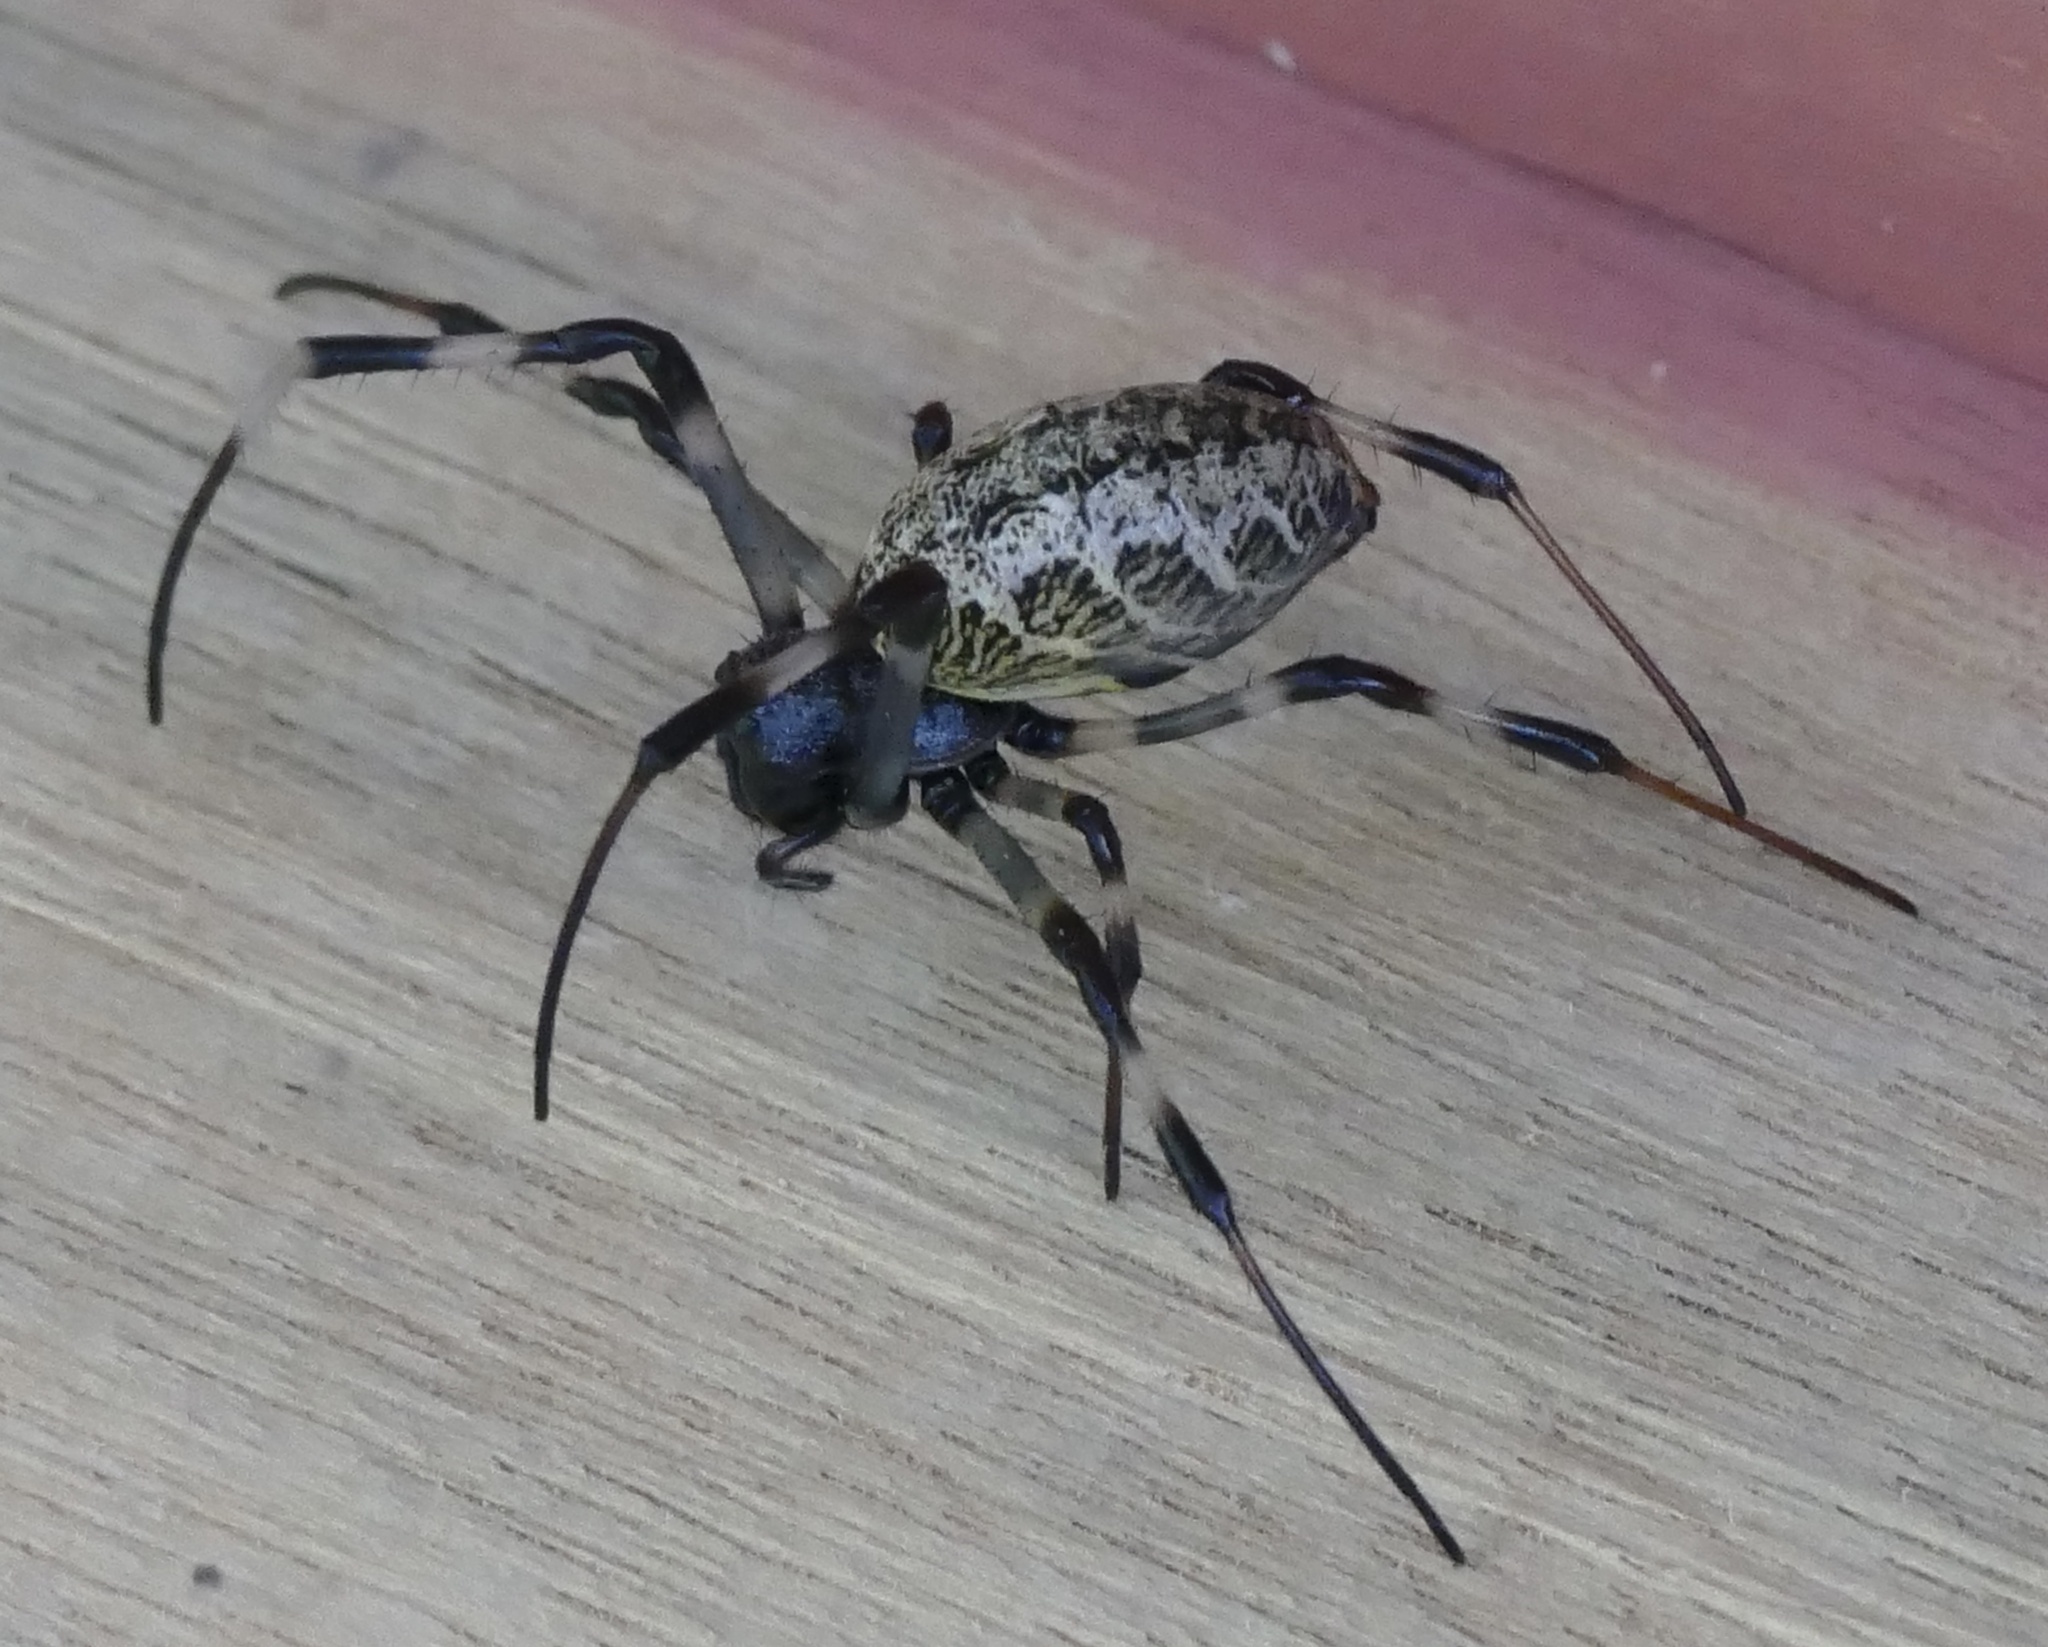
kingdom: Animalia
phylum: Arthropoda
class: Arachnida
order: Araneae
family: Araneidae
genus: Nephilengys
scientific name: Nephilengys malabarensis
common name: Asian hermit spider
